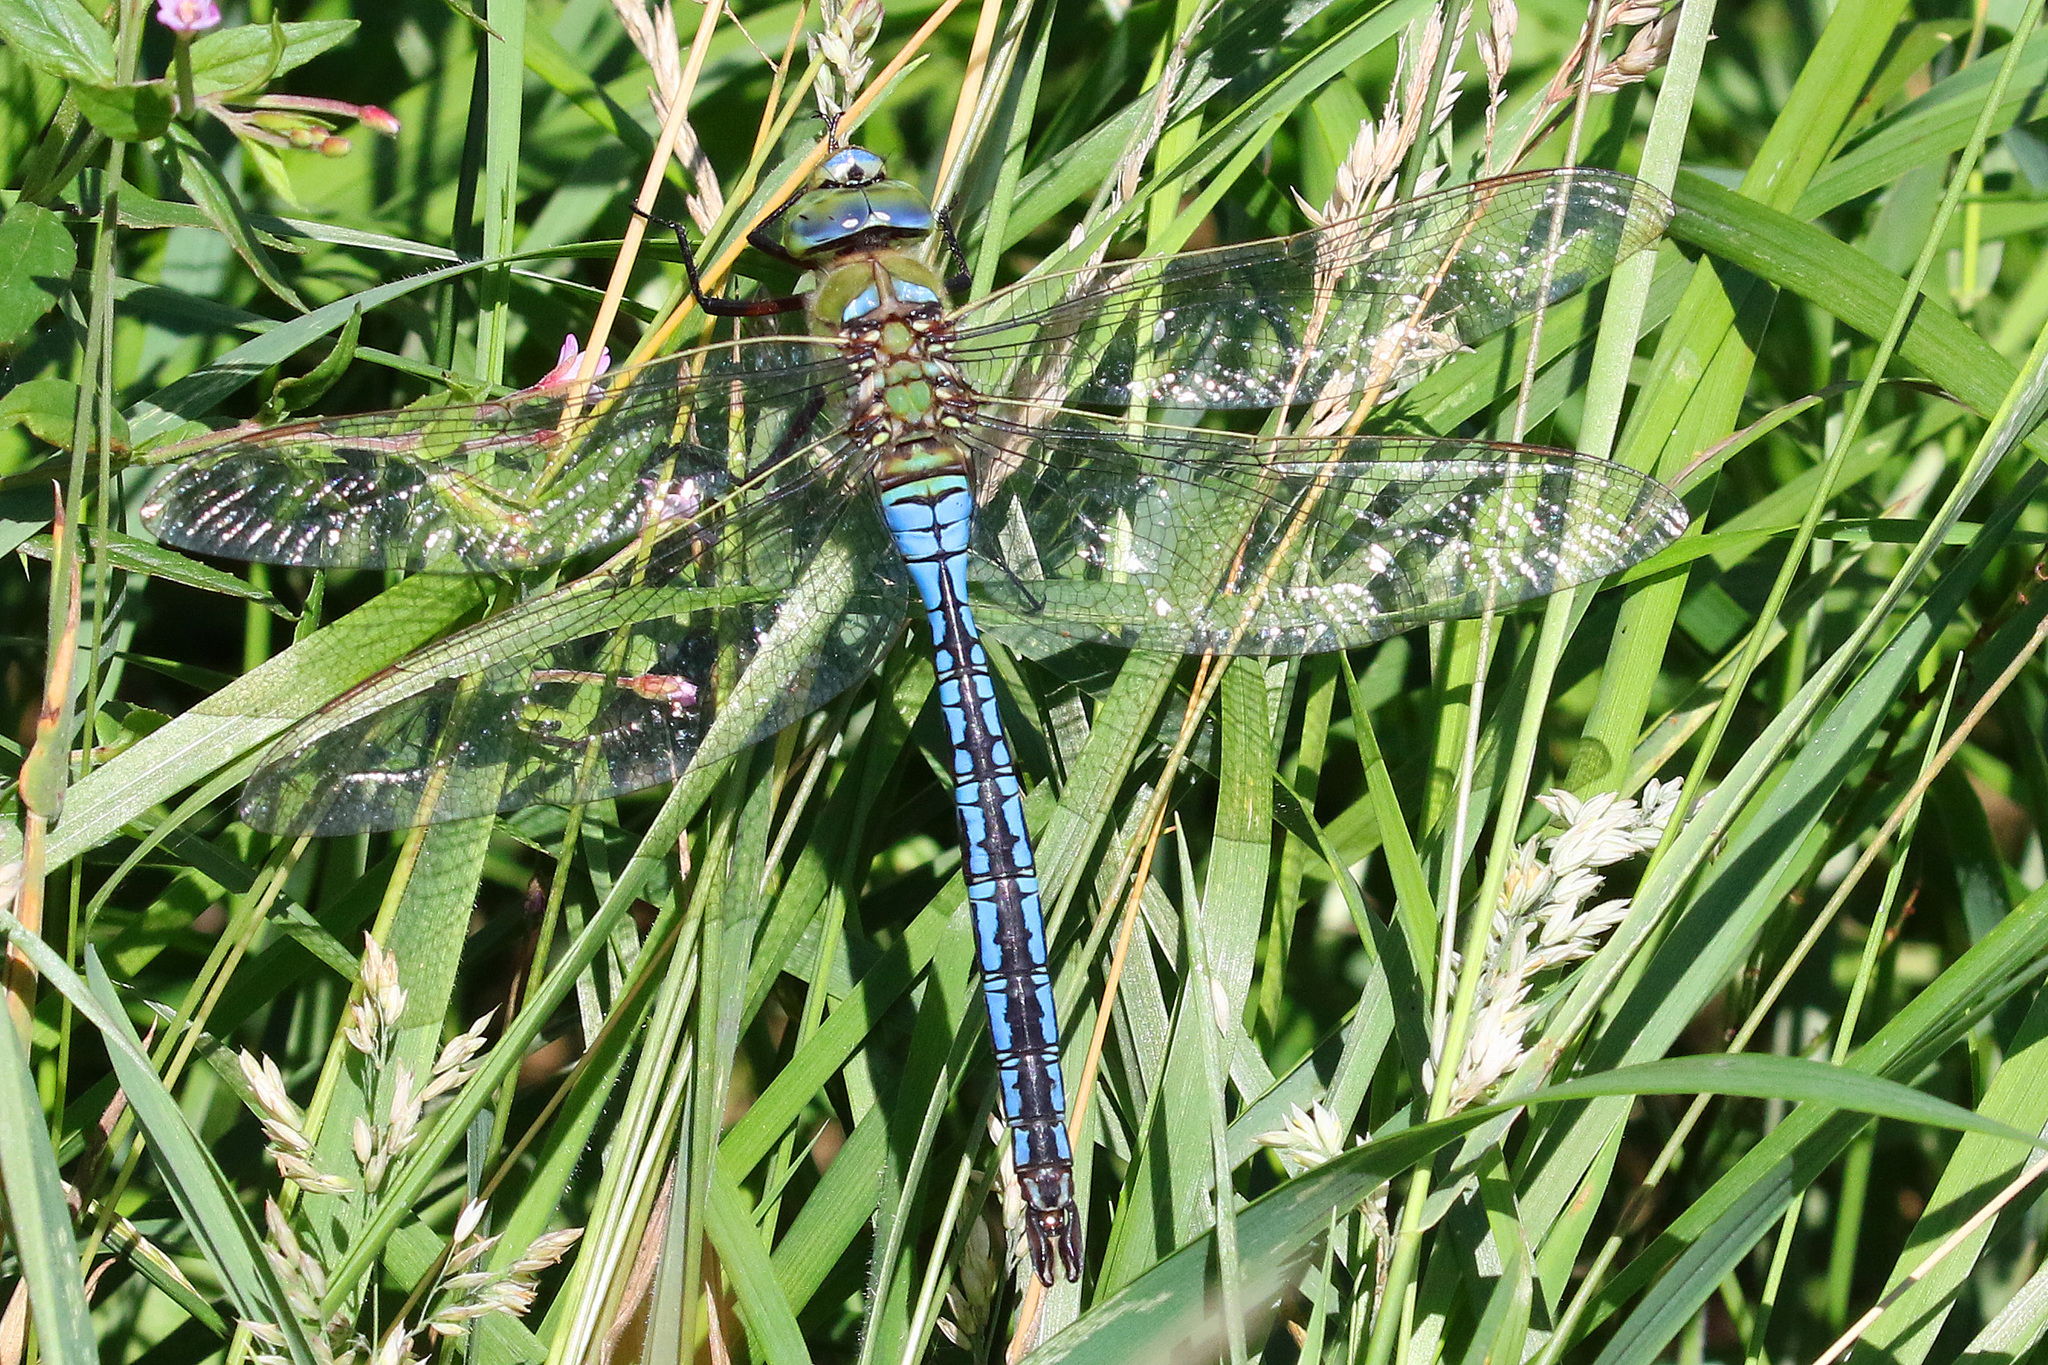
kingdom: Animalia
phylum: Arthropoda
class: Insecta
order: Odonata
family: Aeshnidae
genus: Anax
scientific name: Anax imperator
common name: Emperor dragonfly
